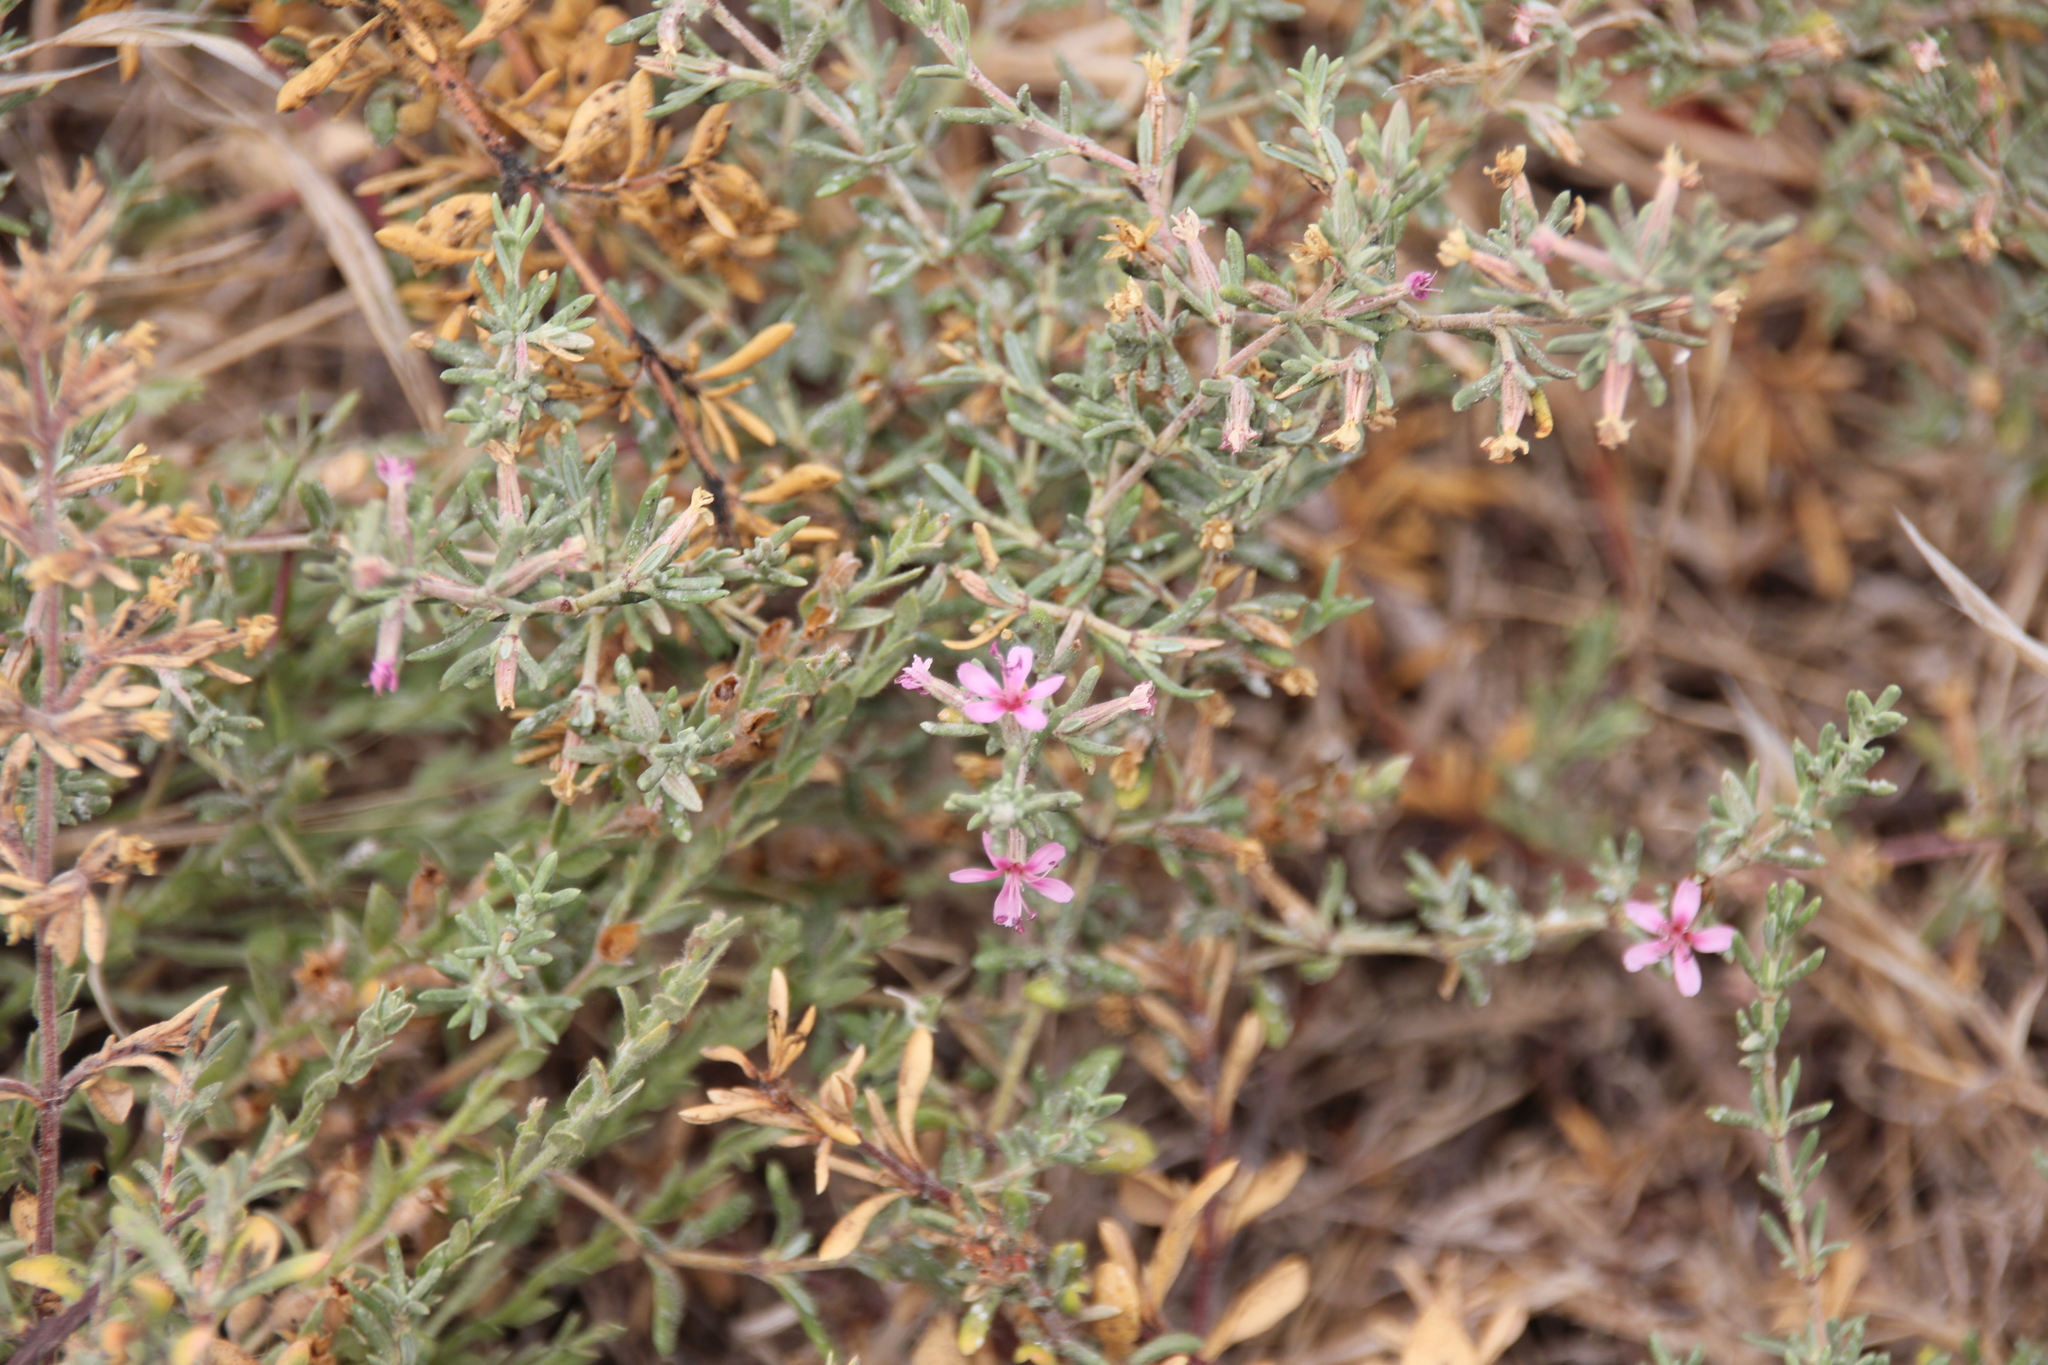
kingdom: Plantae
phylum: Tracheophyta
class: Magnoliopsida
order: Caryophyllales
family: Frankeniaceae
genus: Frankenia
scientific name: Frankenia salina
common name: Alkali seaheath
